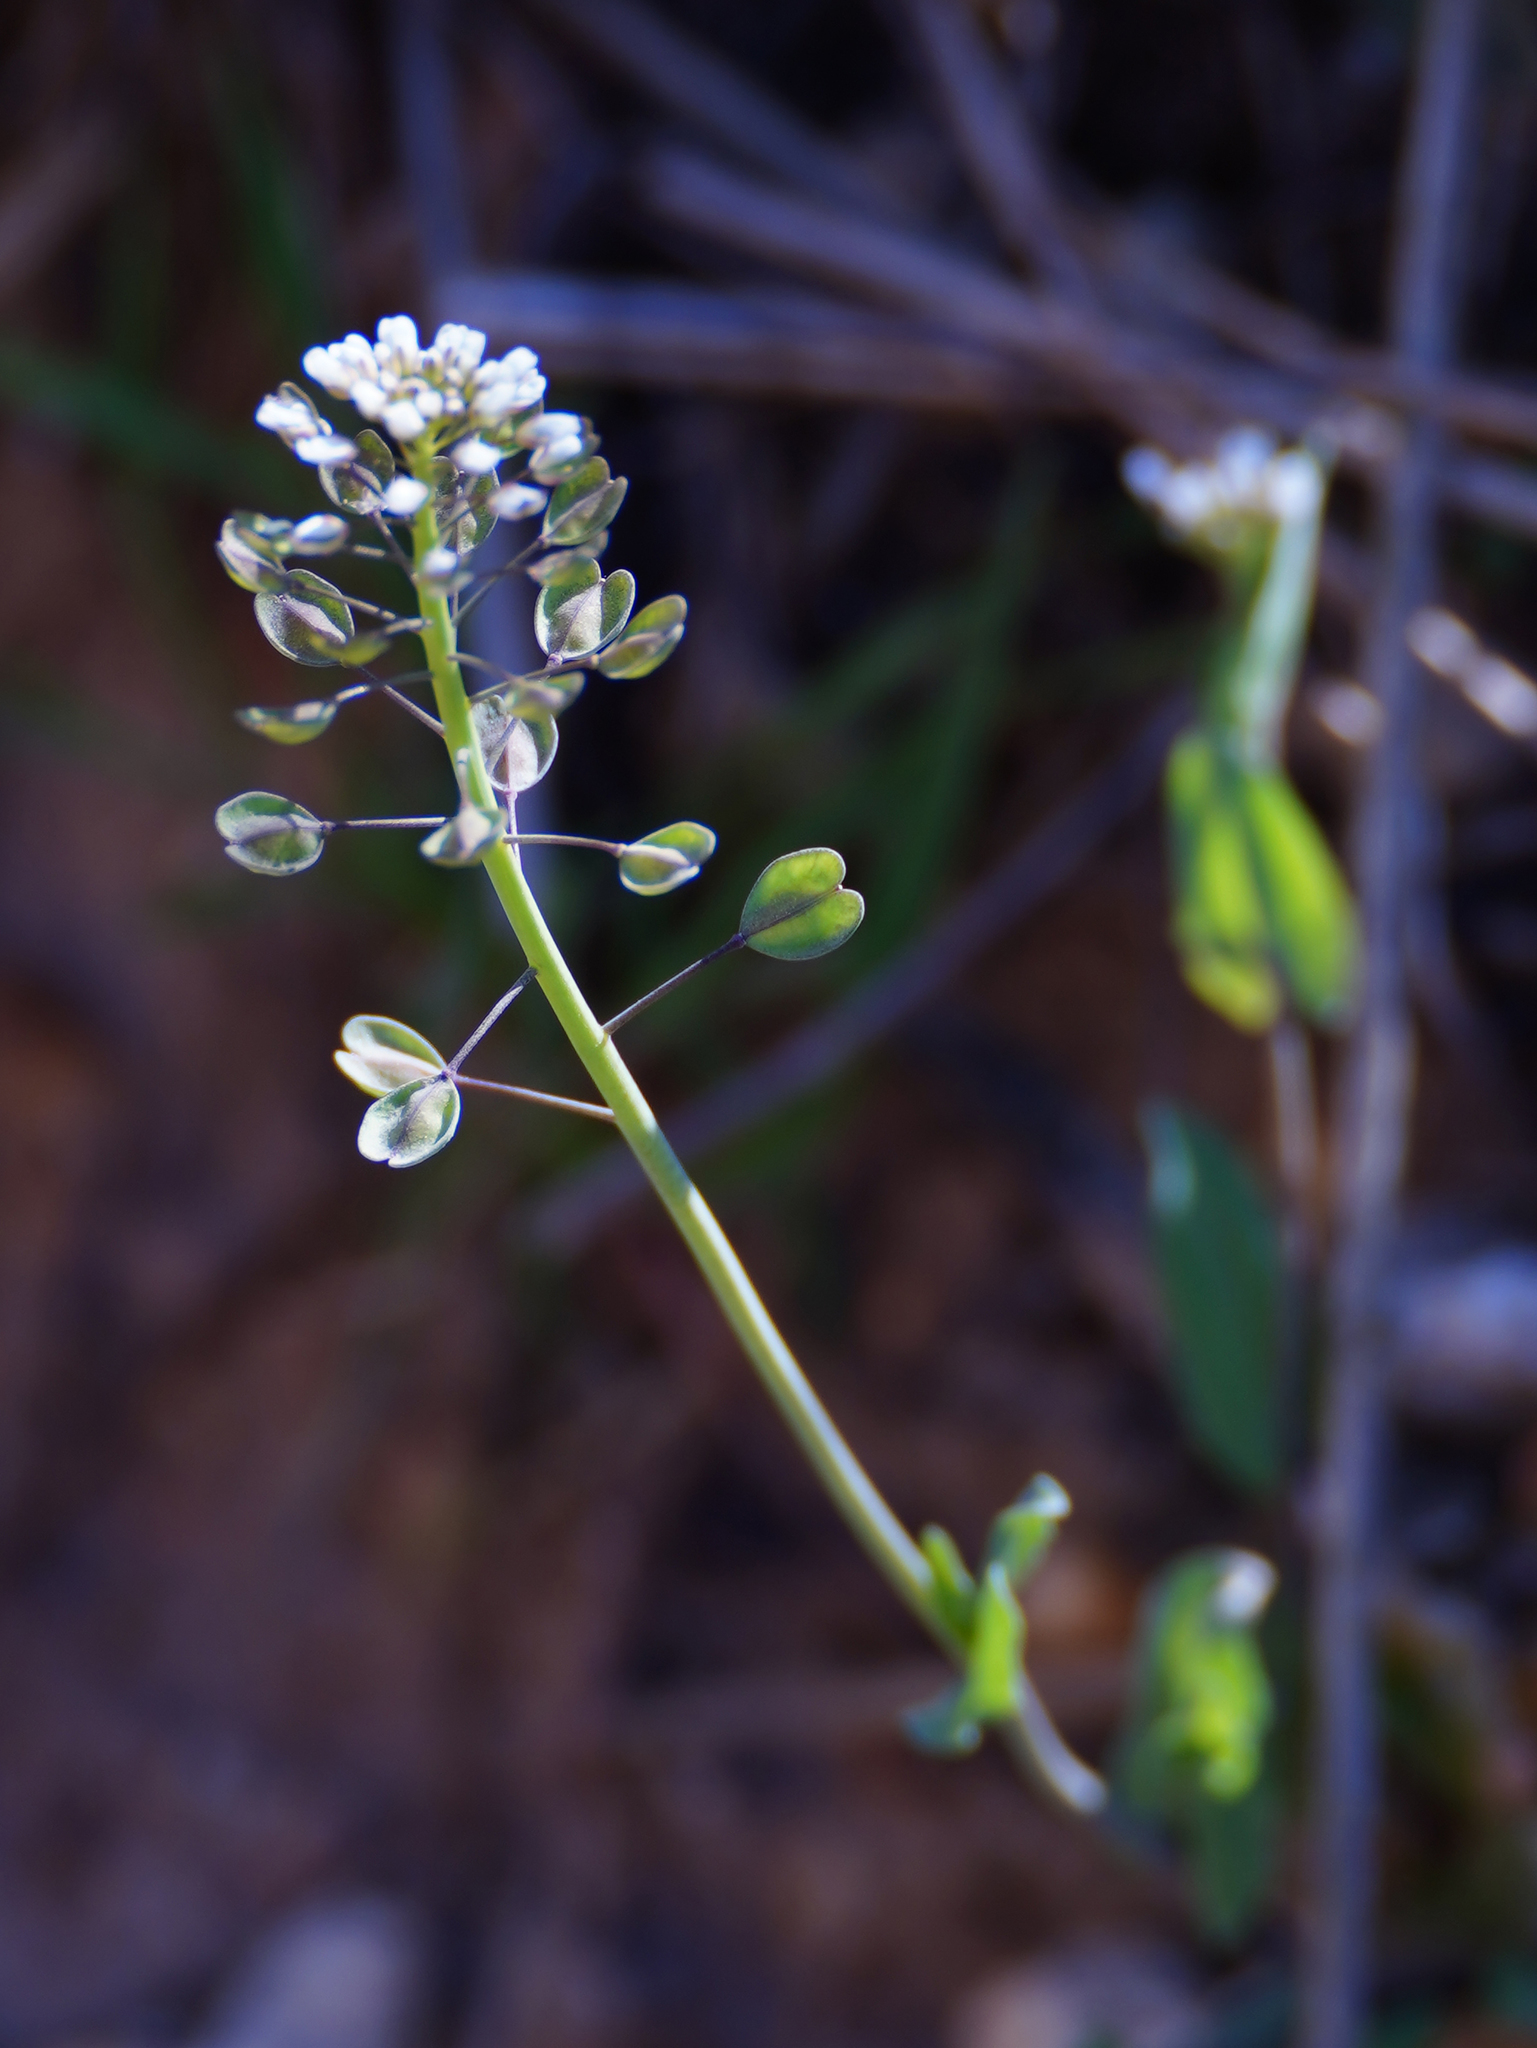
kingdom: Plantae
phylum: Tracheophyta
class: Magnoliopsida
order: Brassicales
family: Brassicaceae
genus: Noccaea
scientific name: Noccaea perfoliata
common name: Perfoliate pennycress
